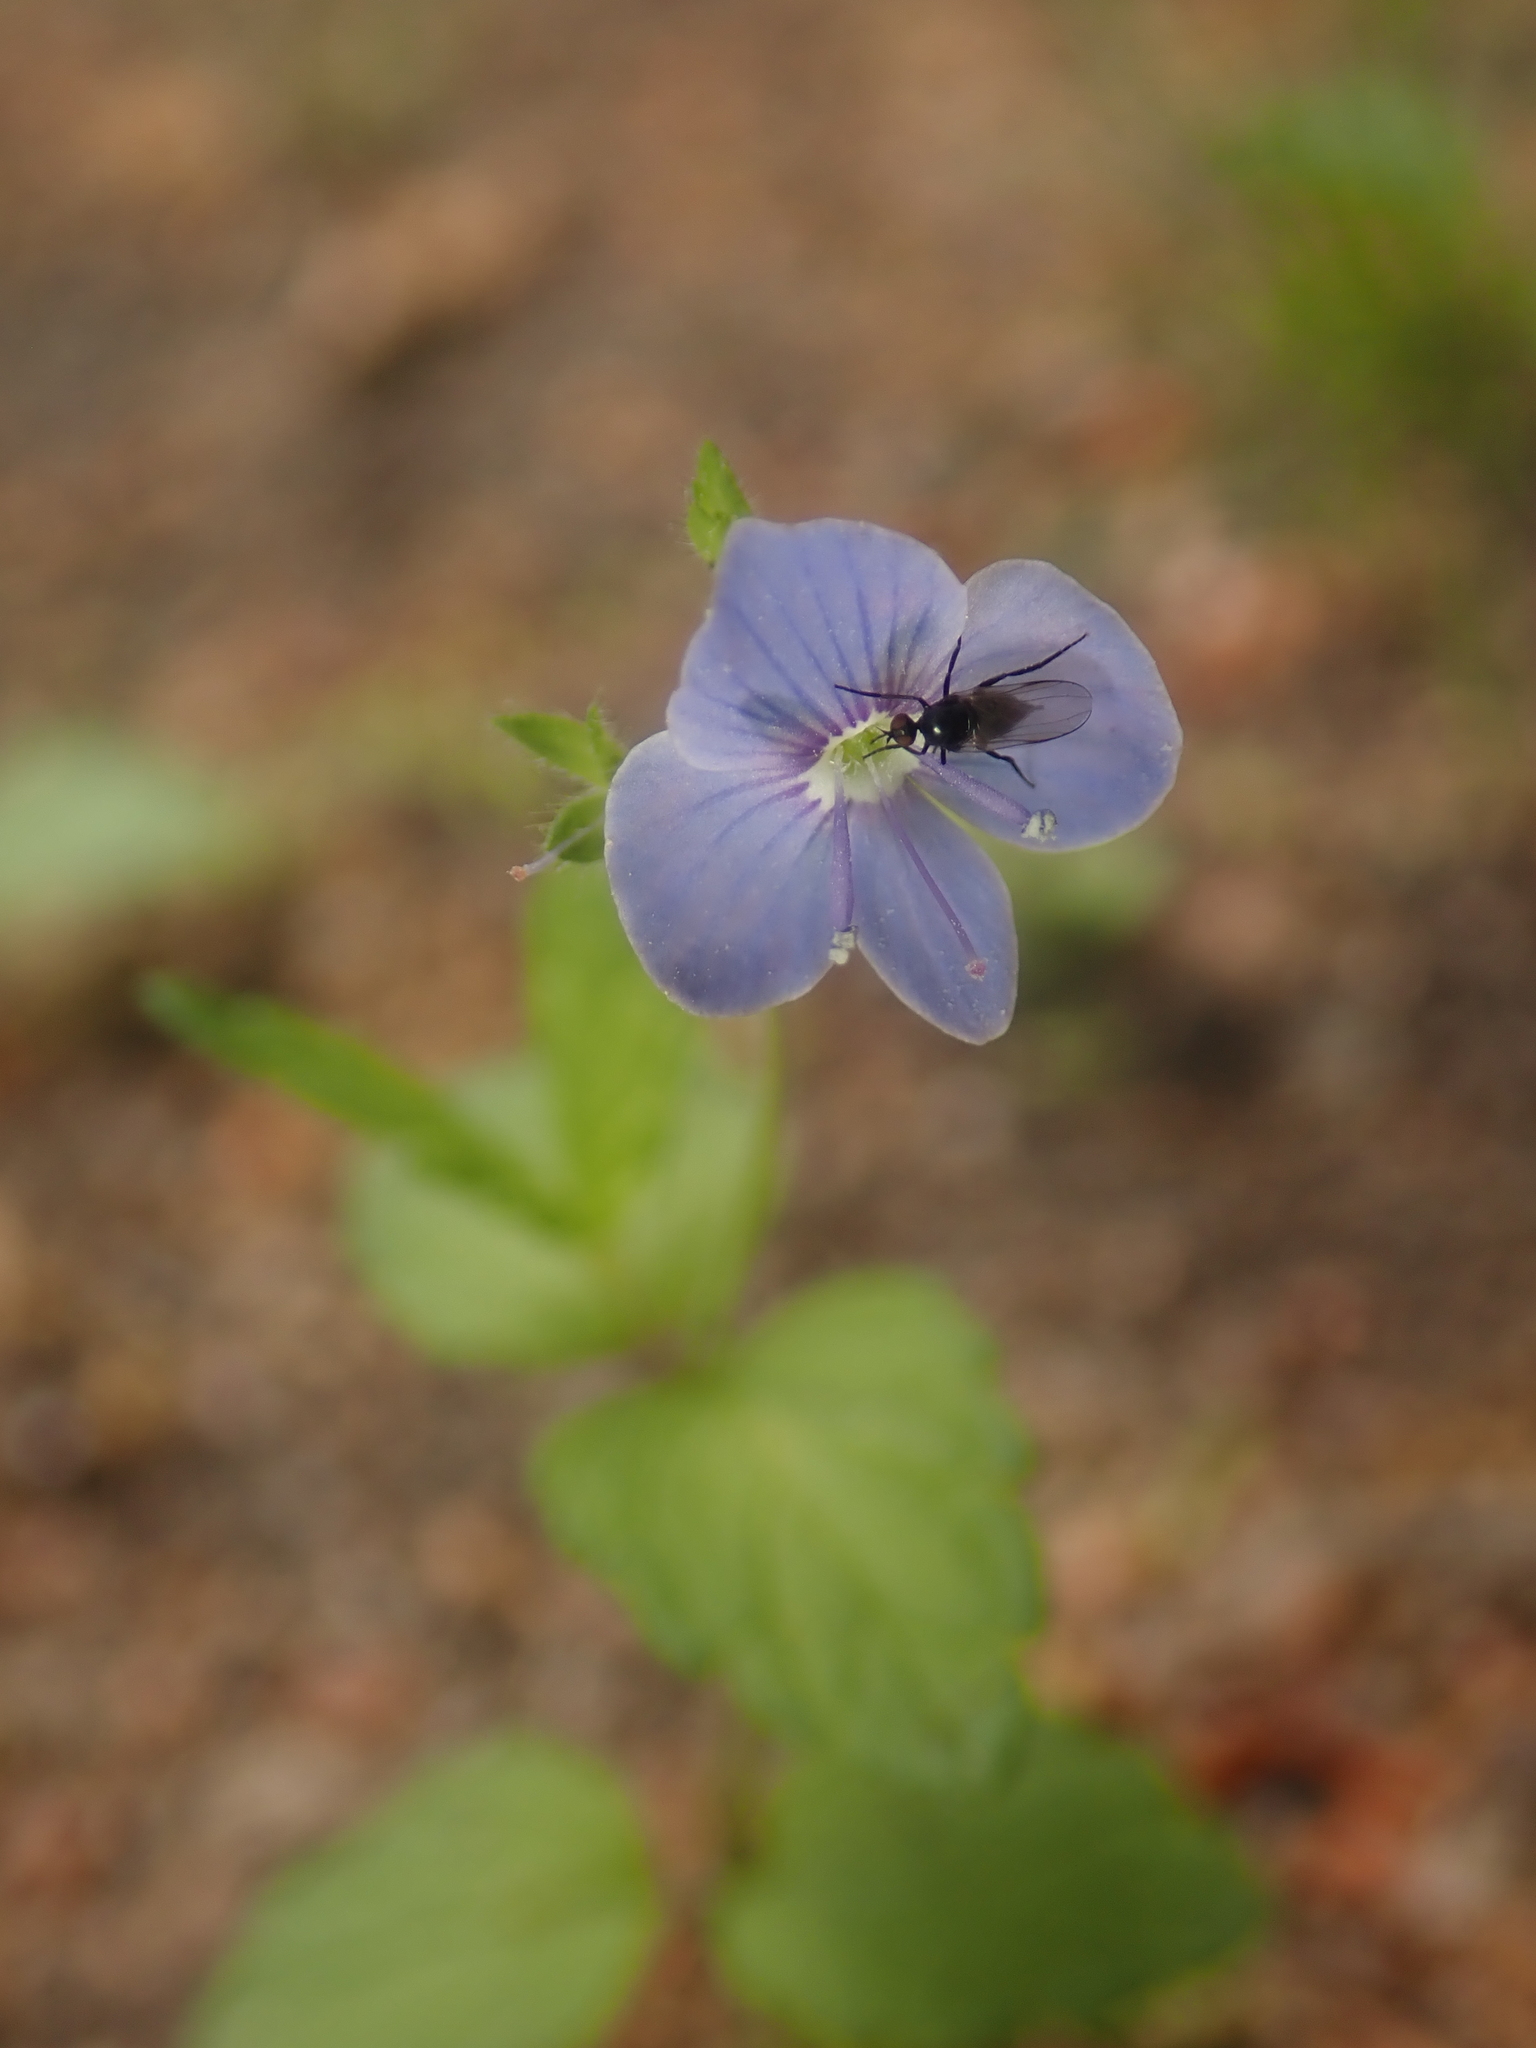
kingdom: Plantae
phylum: Tracheophyta
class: Magnoliopsida
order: Lamiales
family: Plantaginaceae
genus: Veronica
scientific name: Veronica chamaedrys
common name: Germander speedwell
